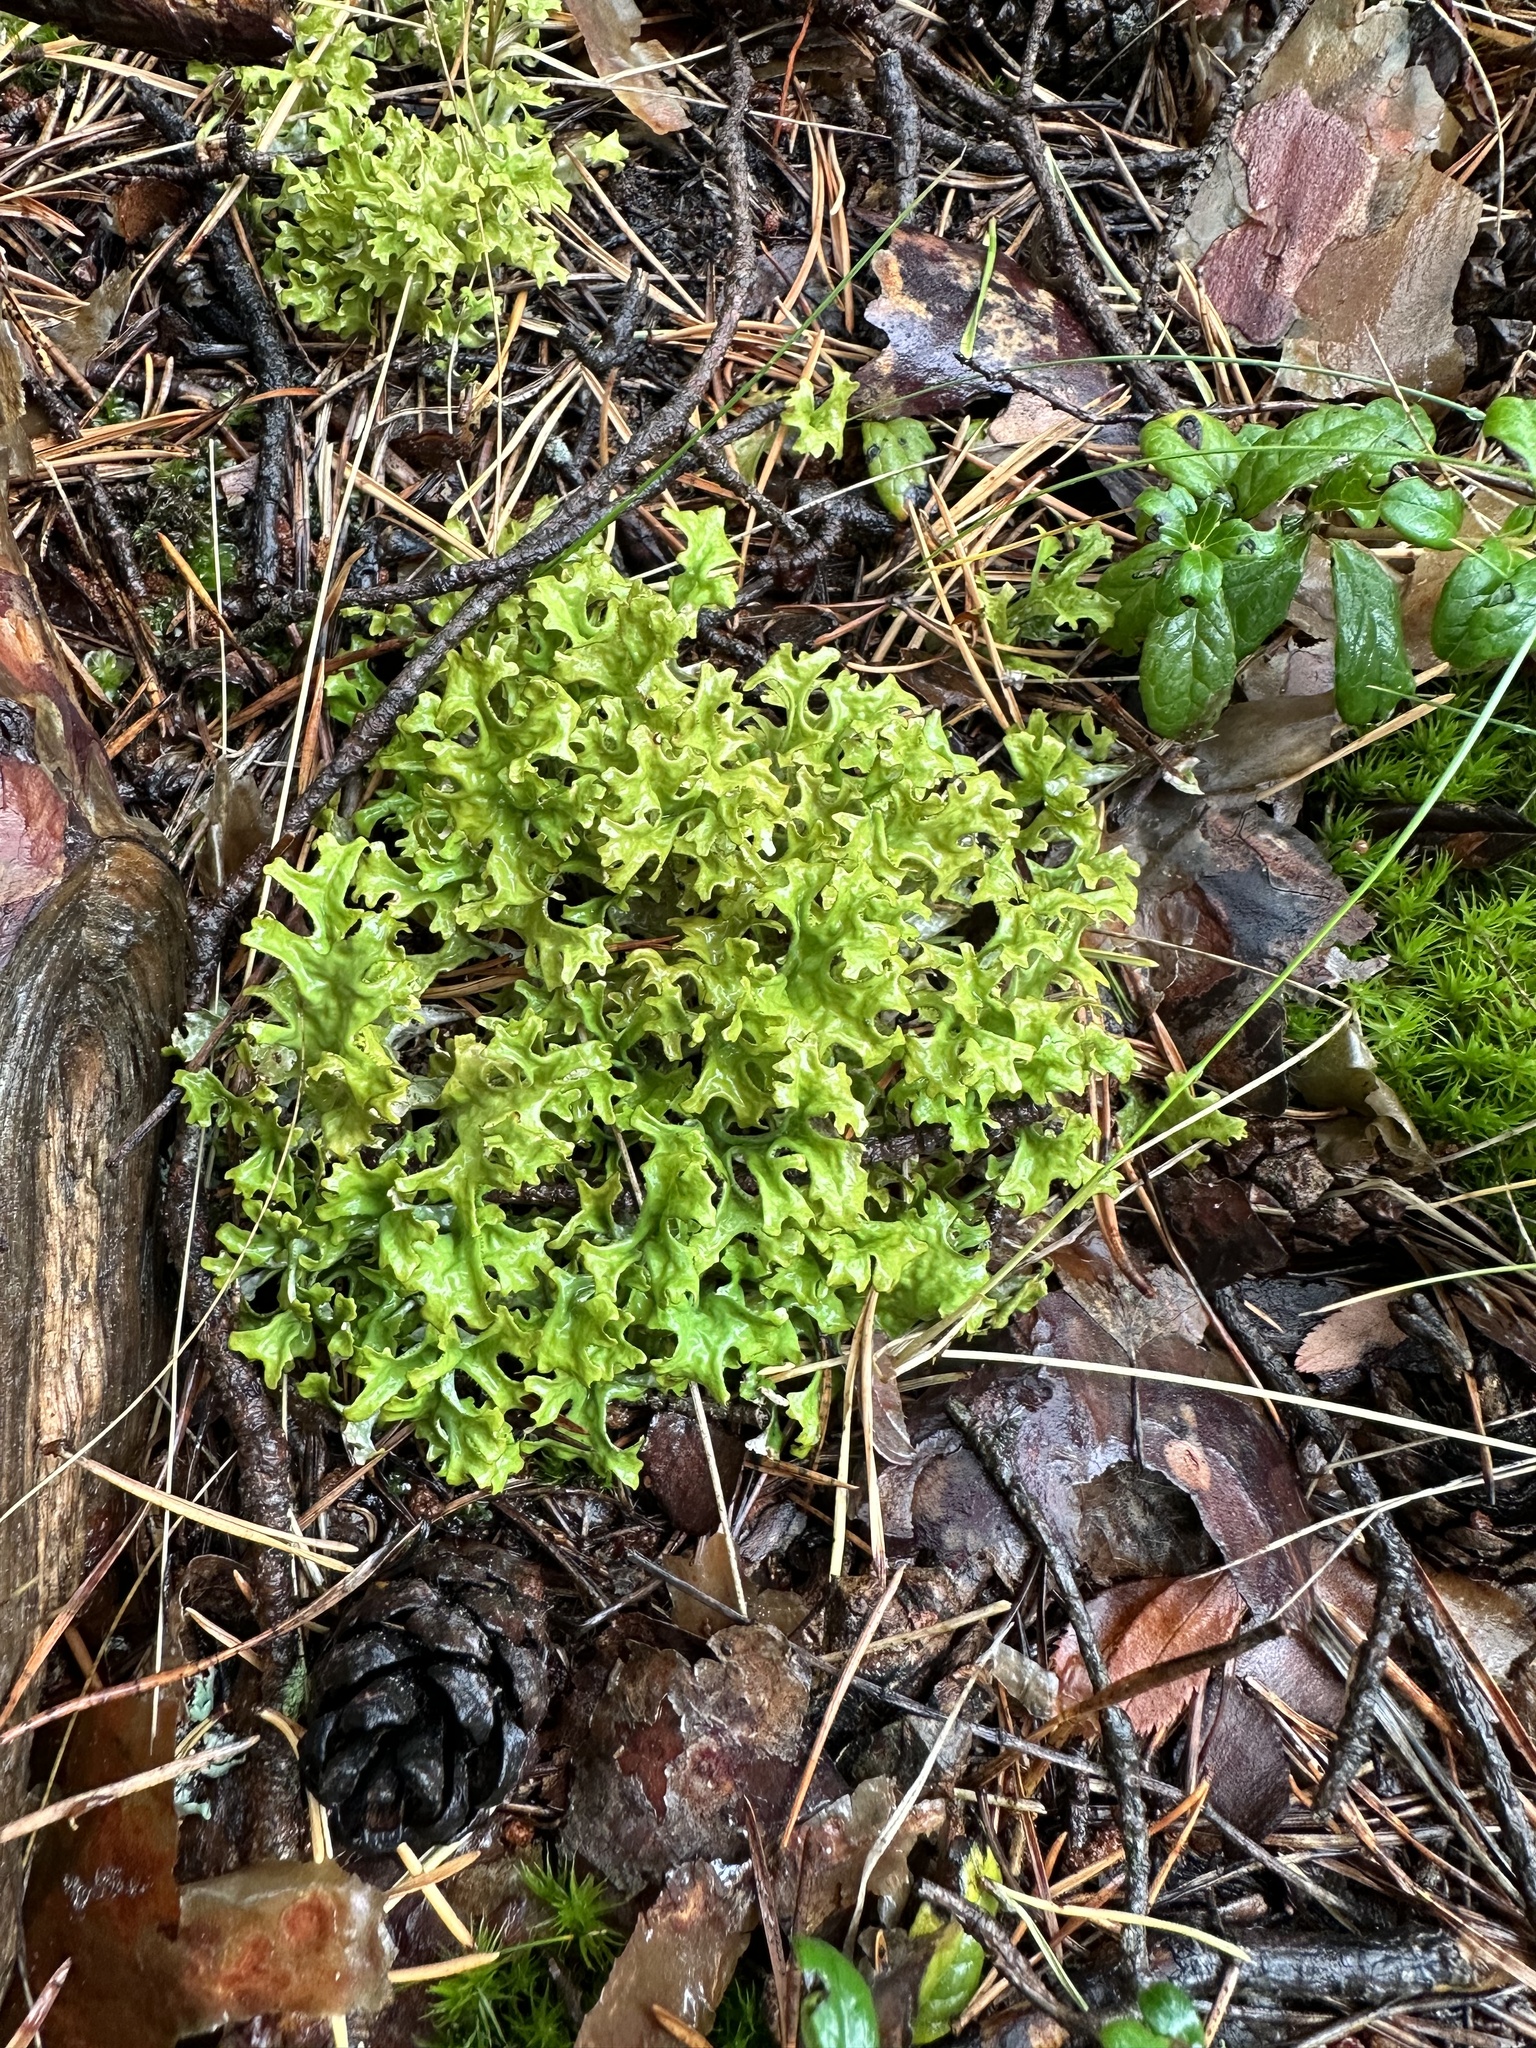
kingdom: Fungi
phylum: Ascomycota
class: Lecanoromycetes
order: Lecanorales
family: Parmeliaceae
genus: Cetraria
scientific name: Cetraria islandica
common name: Iceland lichen
